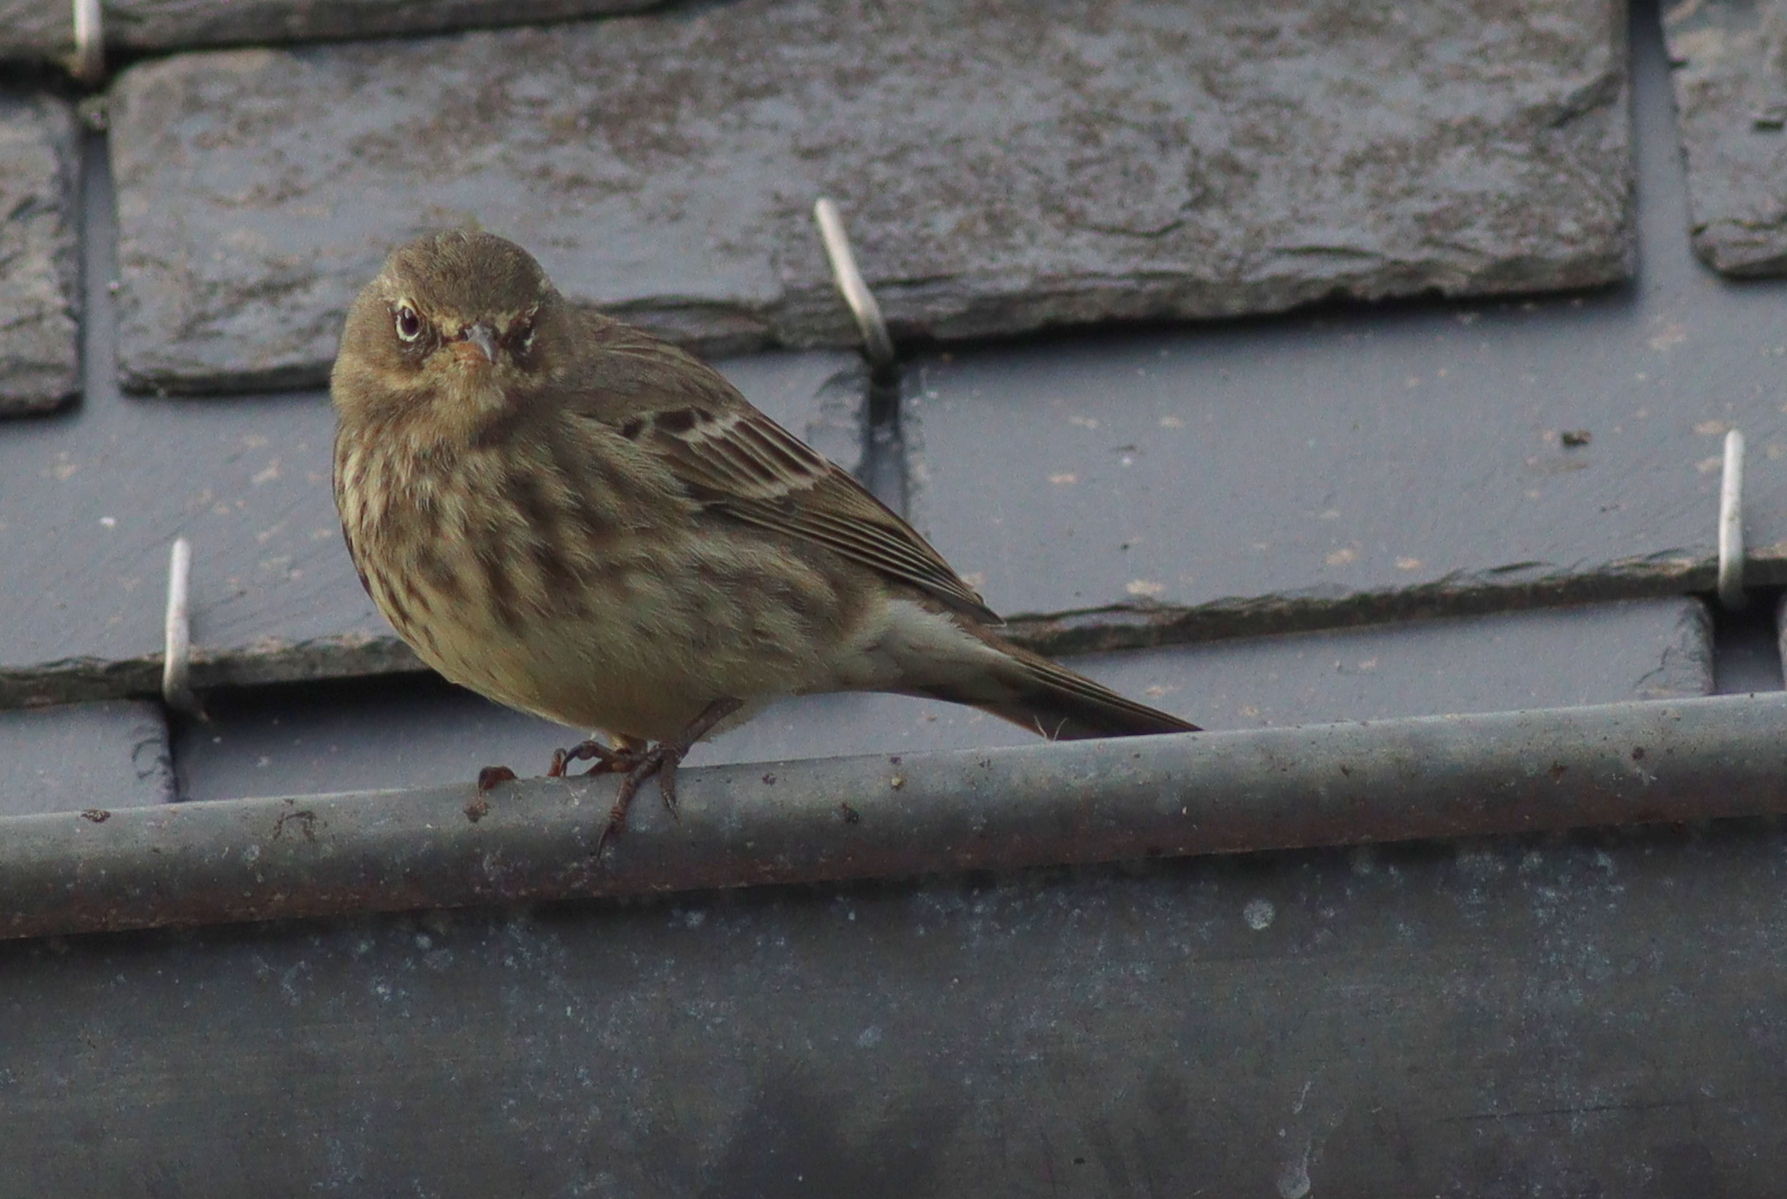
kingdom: Animalia
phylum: Chordata
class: Aves
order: Passeriformes
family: Motacillidae
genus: Anthus
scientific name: Anthus petrosus
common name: Eurasian rock pipit
